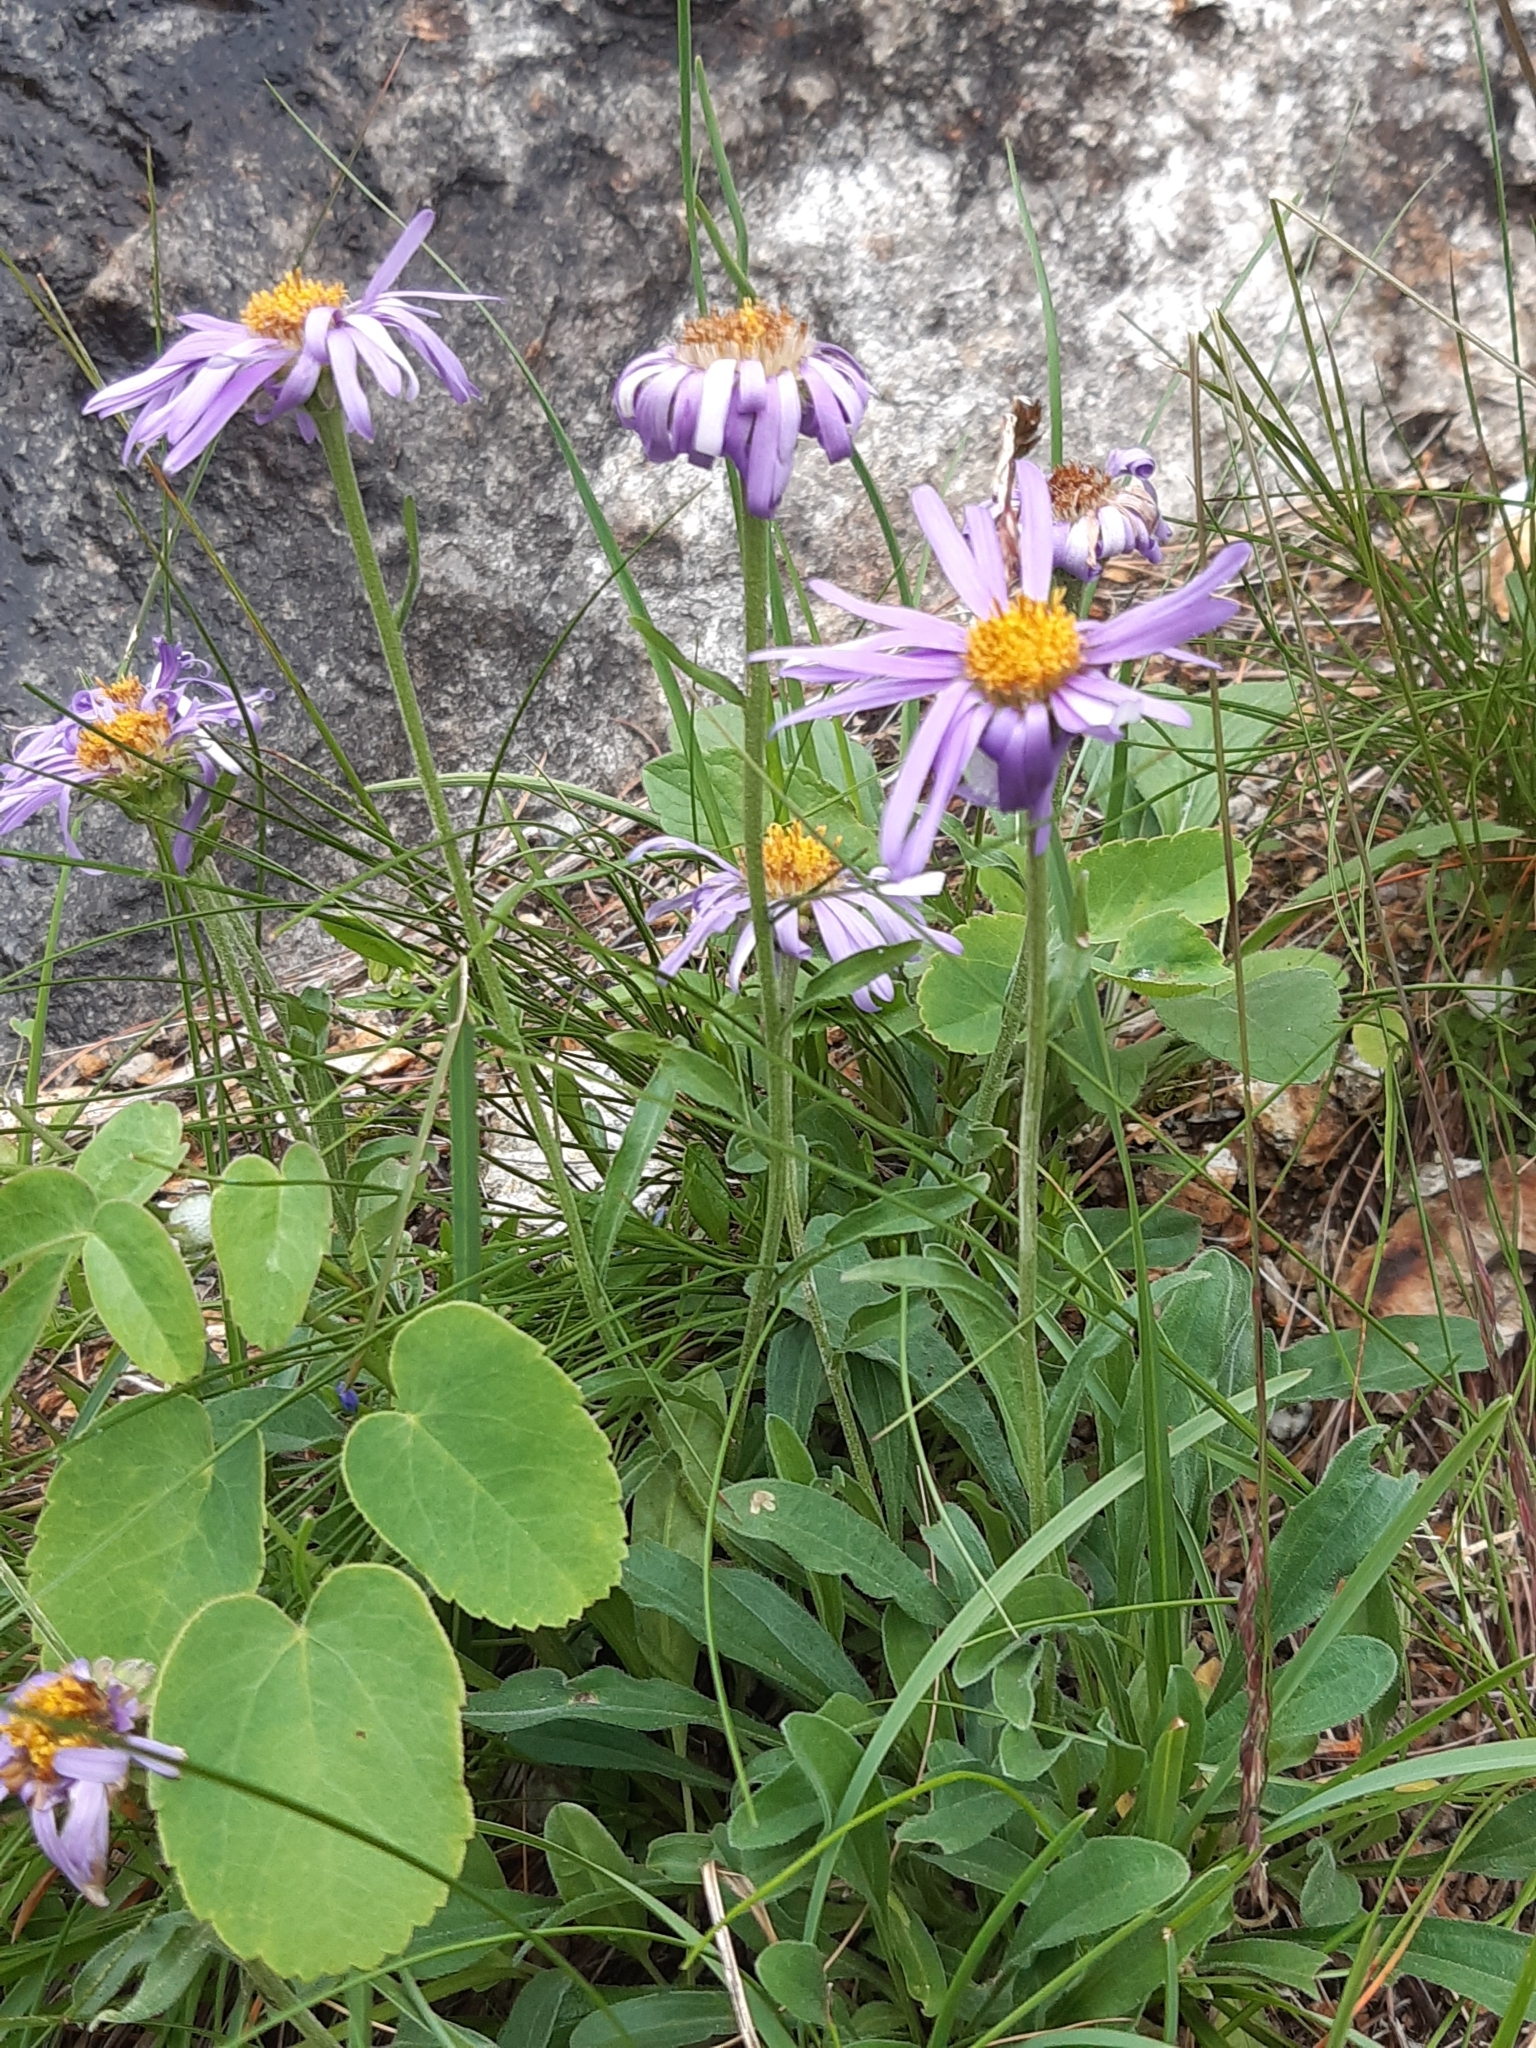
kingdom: Plantae
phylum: Tracheophyta
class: Magnoliopsida
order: Asterales
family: Asteraceae
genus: Aster
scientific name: Aster alpinus
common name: Alpine aster
